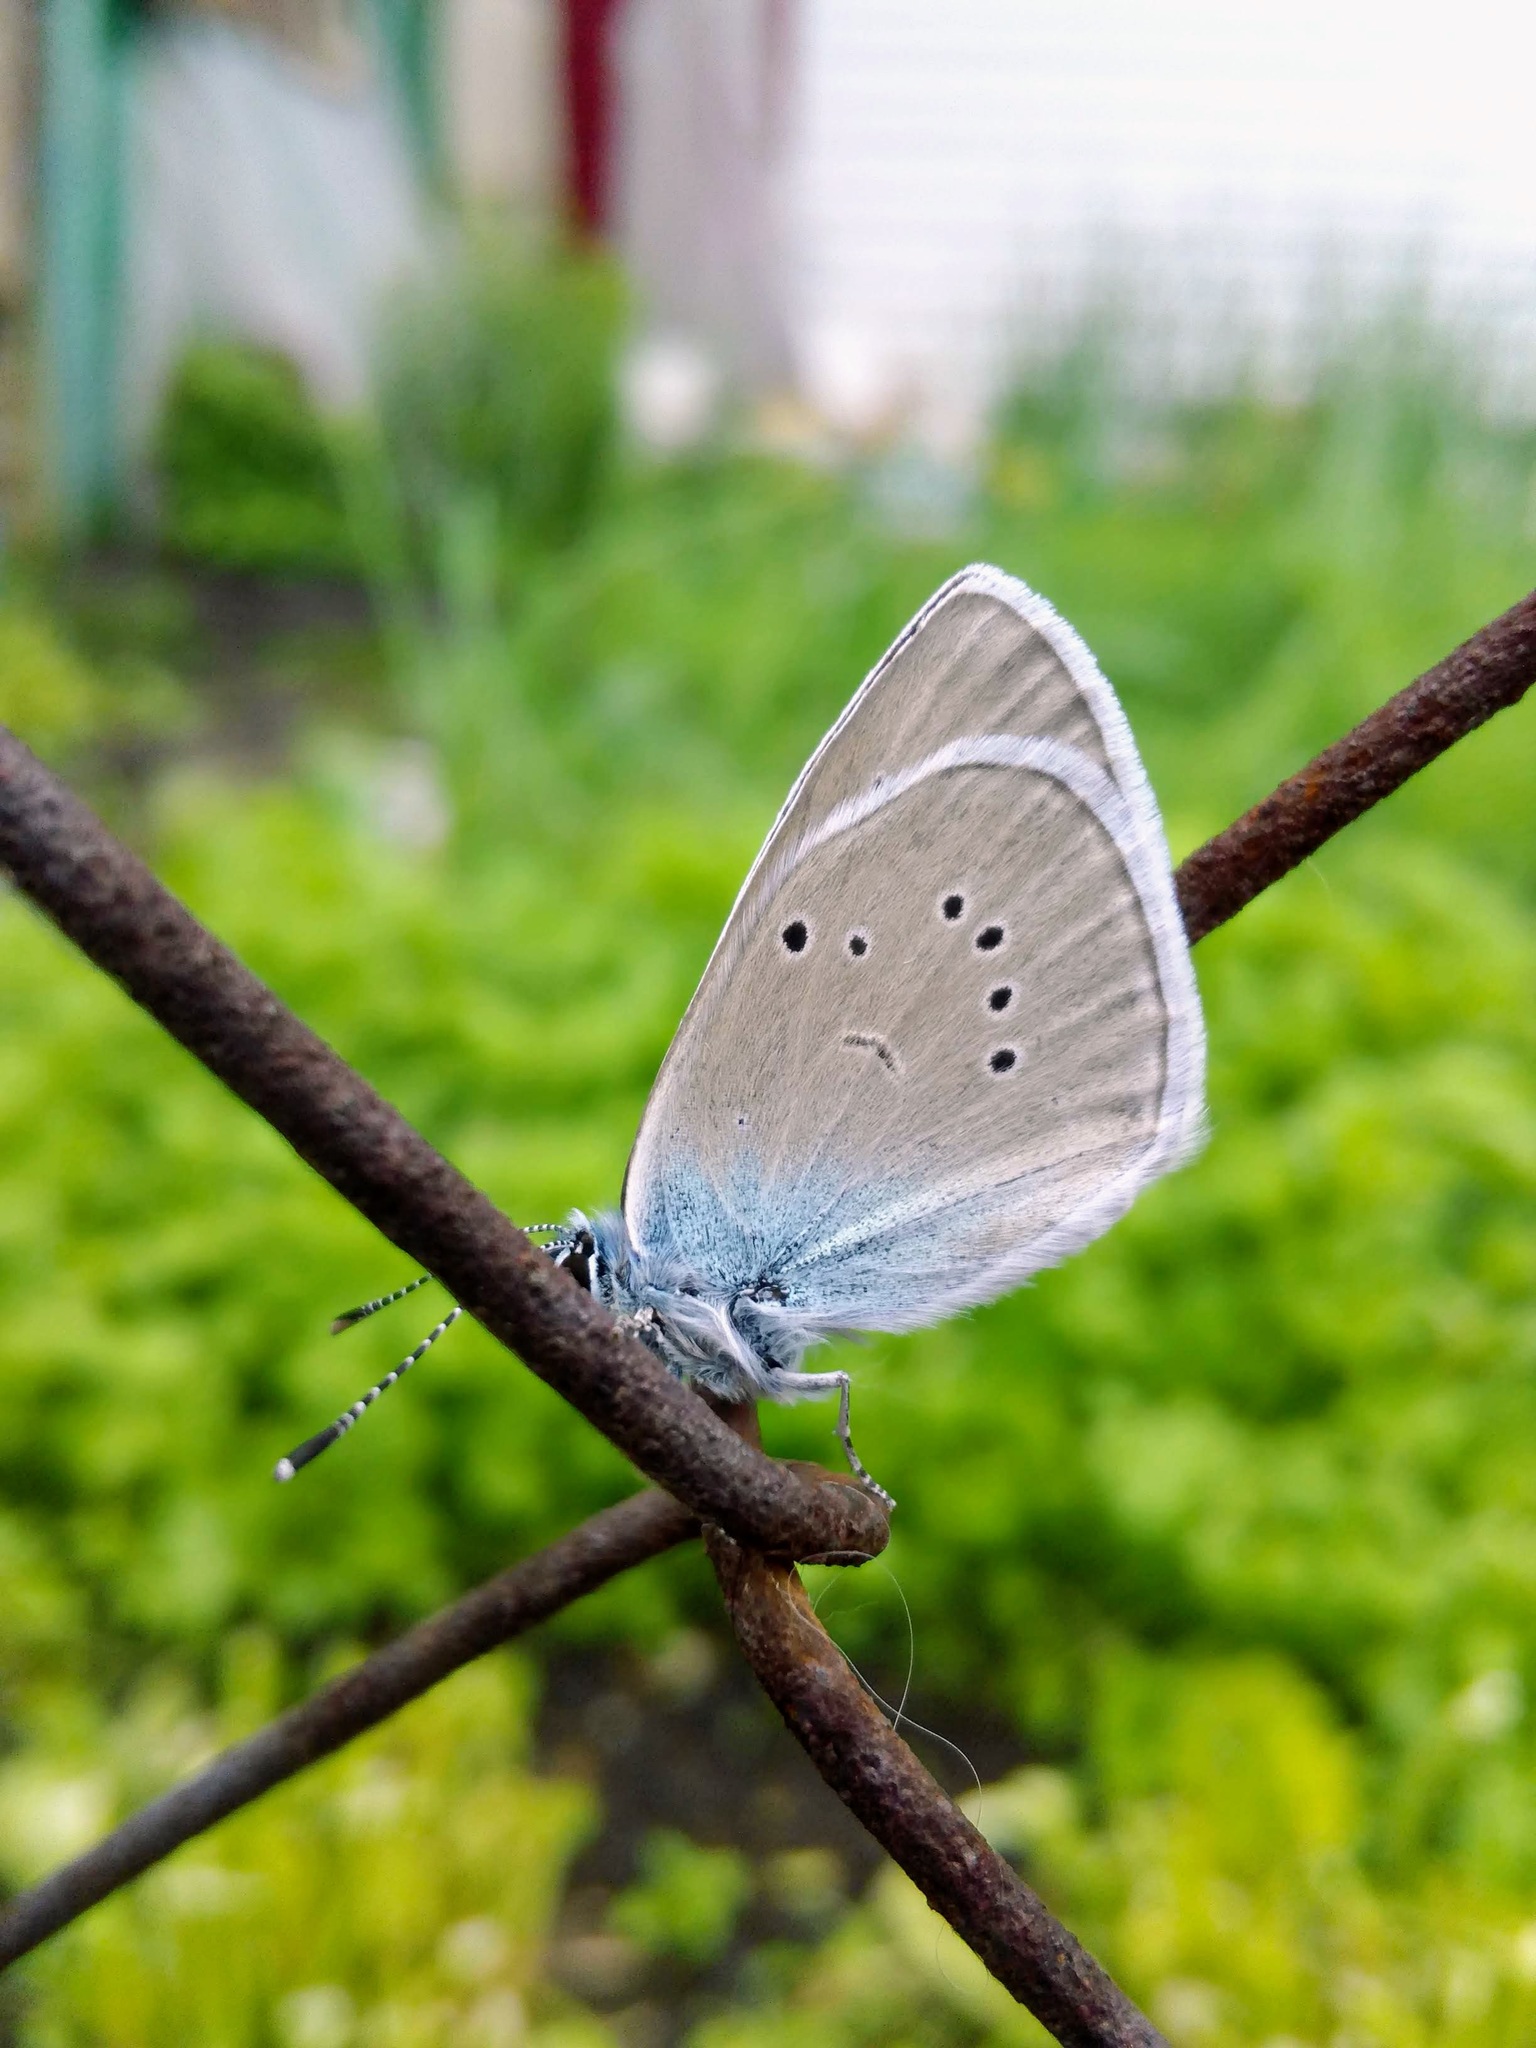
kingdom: Animalia
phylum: Arthropoda
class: Insecta
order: Lepidoptera
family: Lycaenidae
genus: Cyaniris
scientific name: Cyaniris semiargus
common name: Mazarine blue
